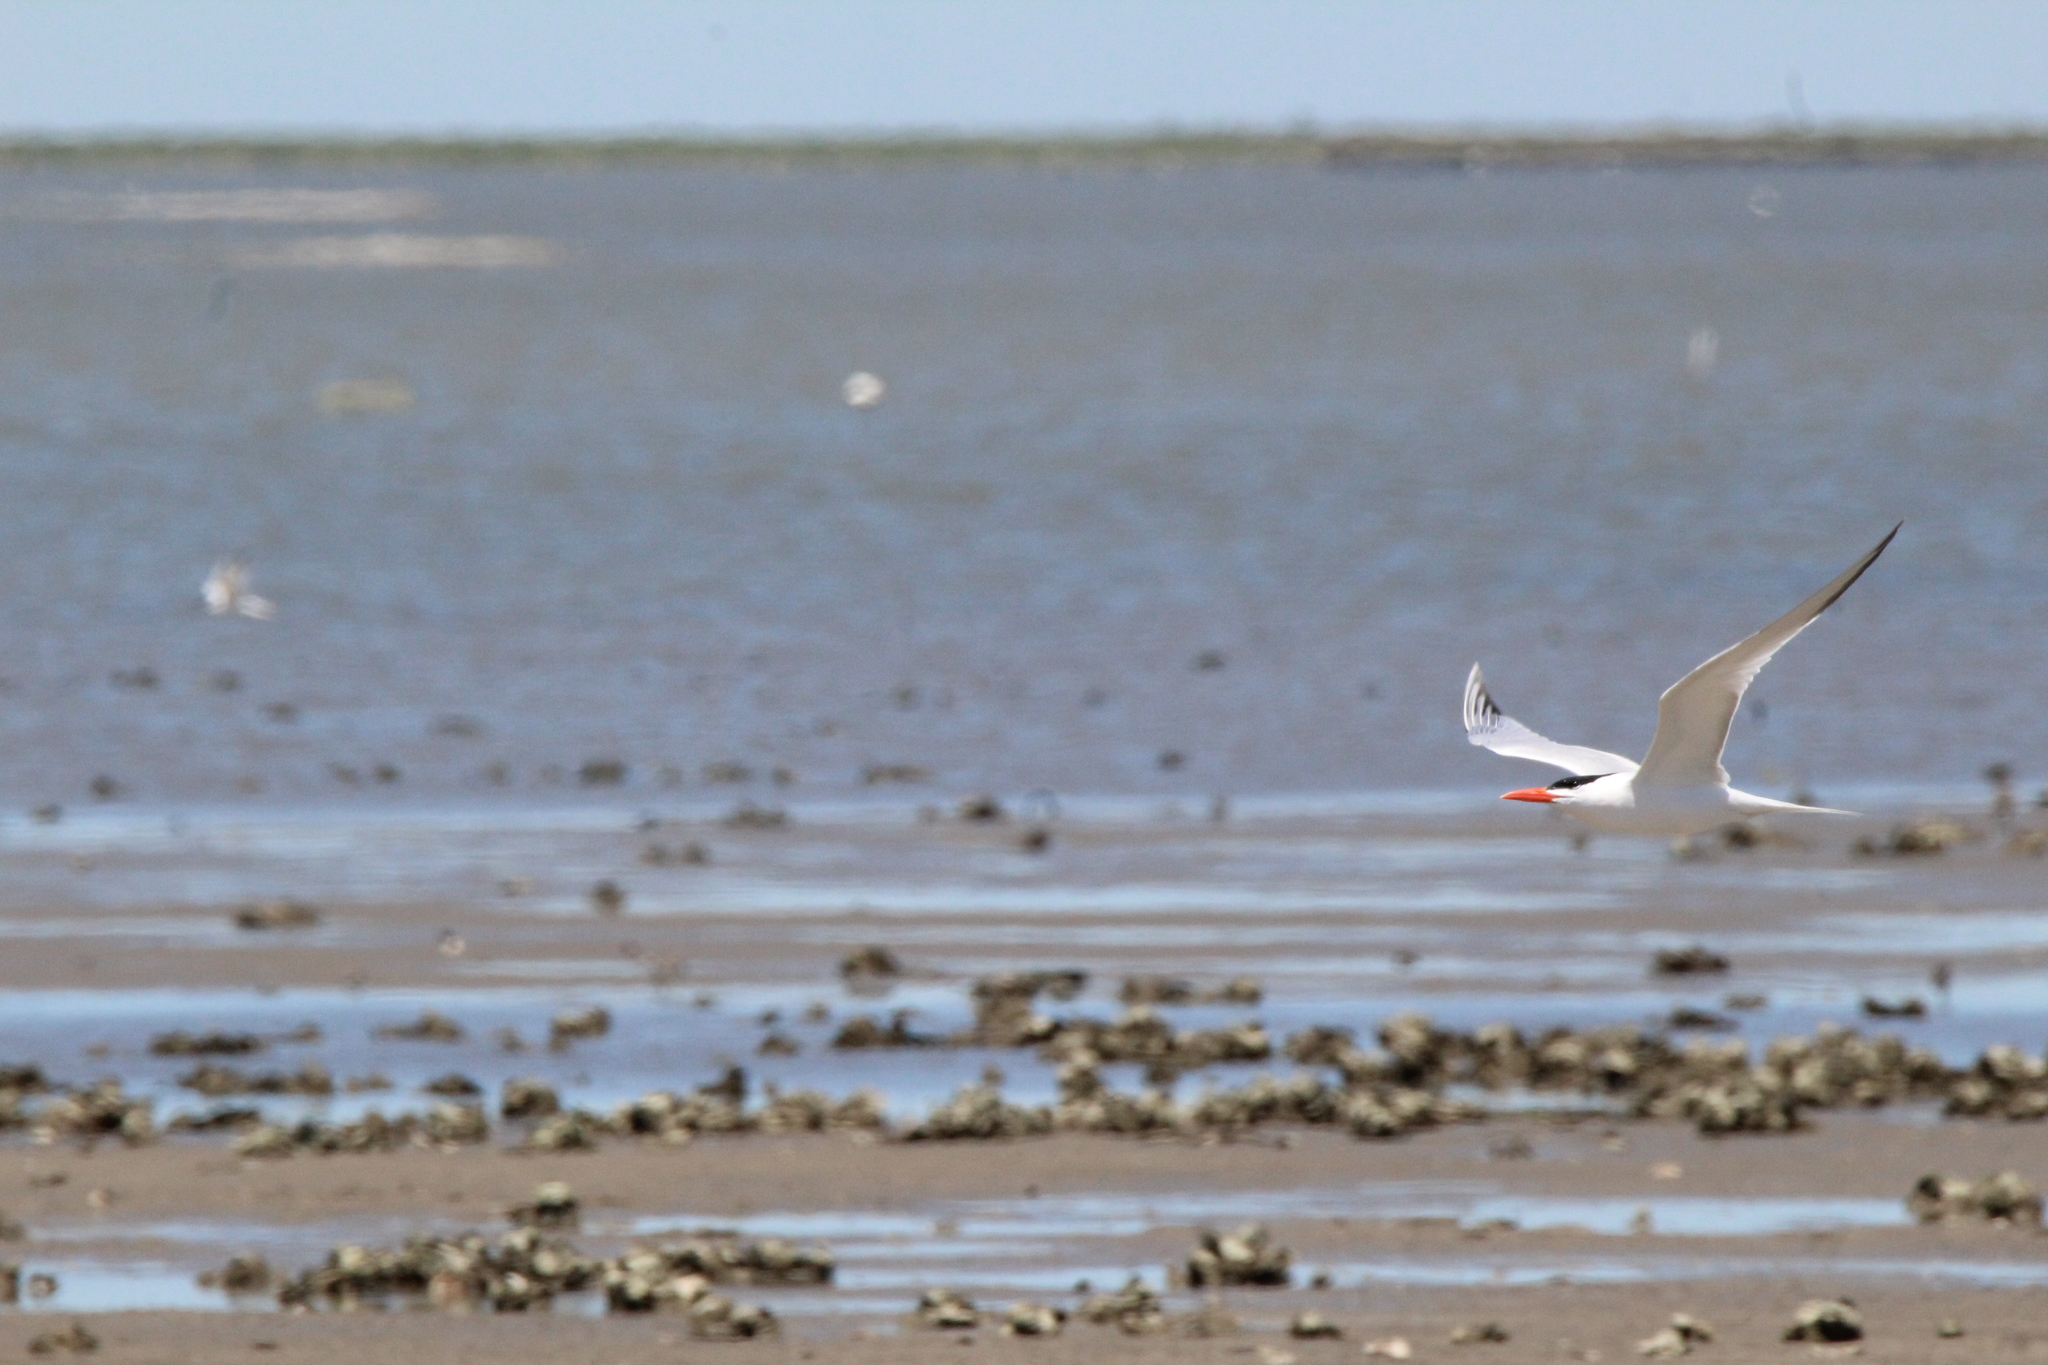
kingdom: Animalia
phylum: Chordata
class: Aves
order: Charadriiformes
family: Laridae
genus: Hydroprogne
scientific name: Hydroprogne caspia
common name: Caspian tern
